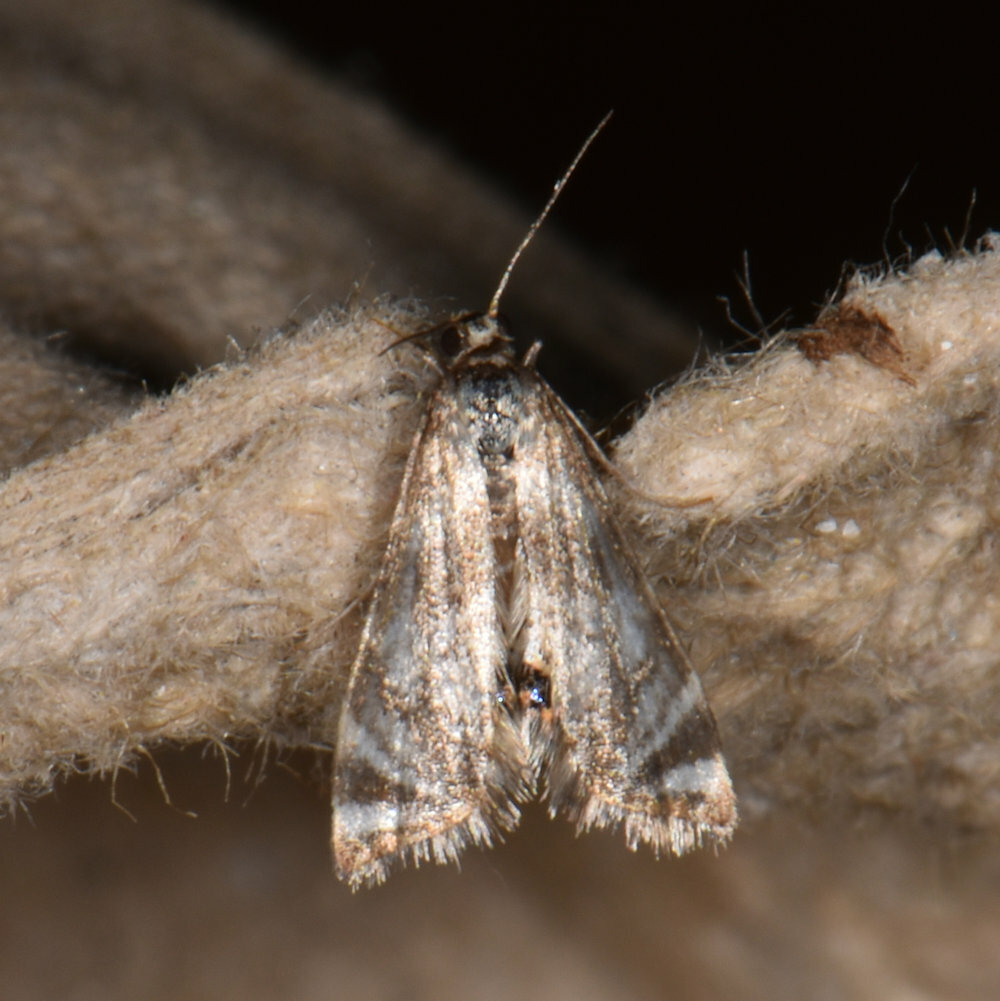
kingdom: Animalia
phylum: Arthropoda
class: Insecta
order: Lepidoptera
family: Crambidae
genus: Petrophila
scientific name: Petrophila canadensis
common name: Canadian petrophila
